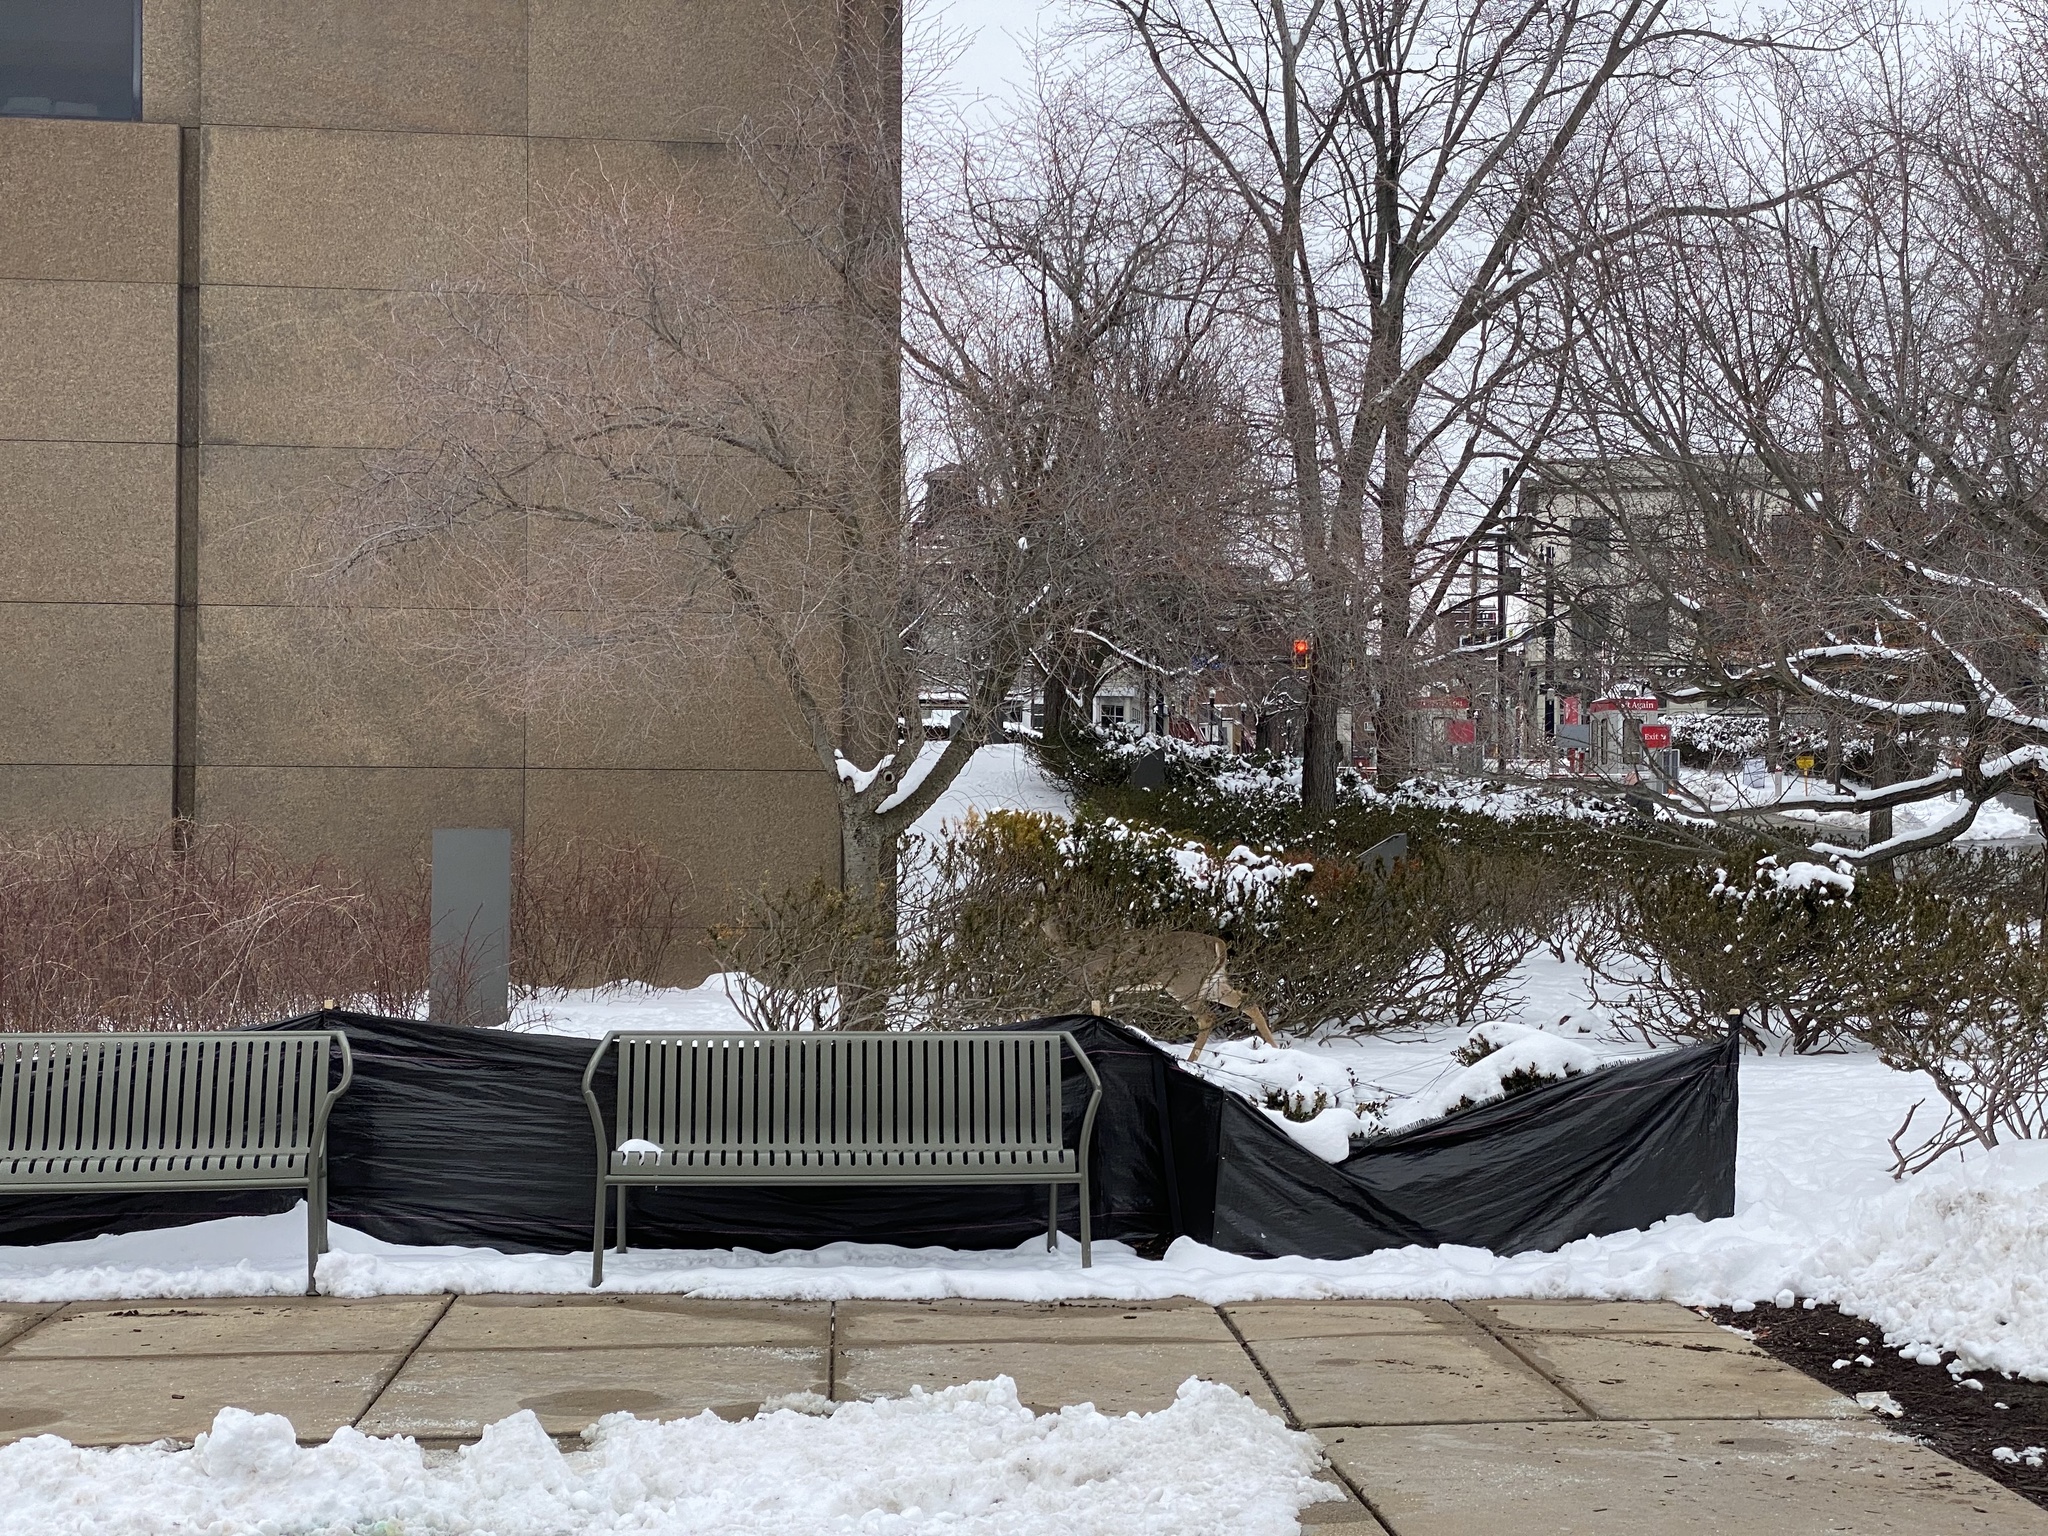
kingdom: Animalia
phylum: Chordata
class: Mammalia
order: Artiodactyla
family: Cervidae
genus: Odocoileus
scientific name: Odocoileus virginianus
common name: White-tailed deer
